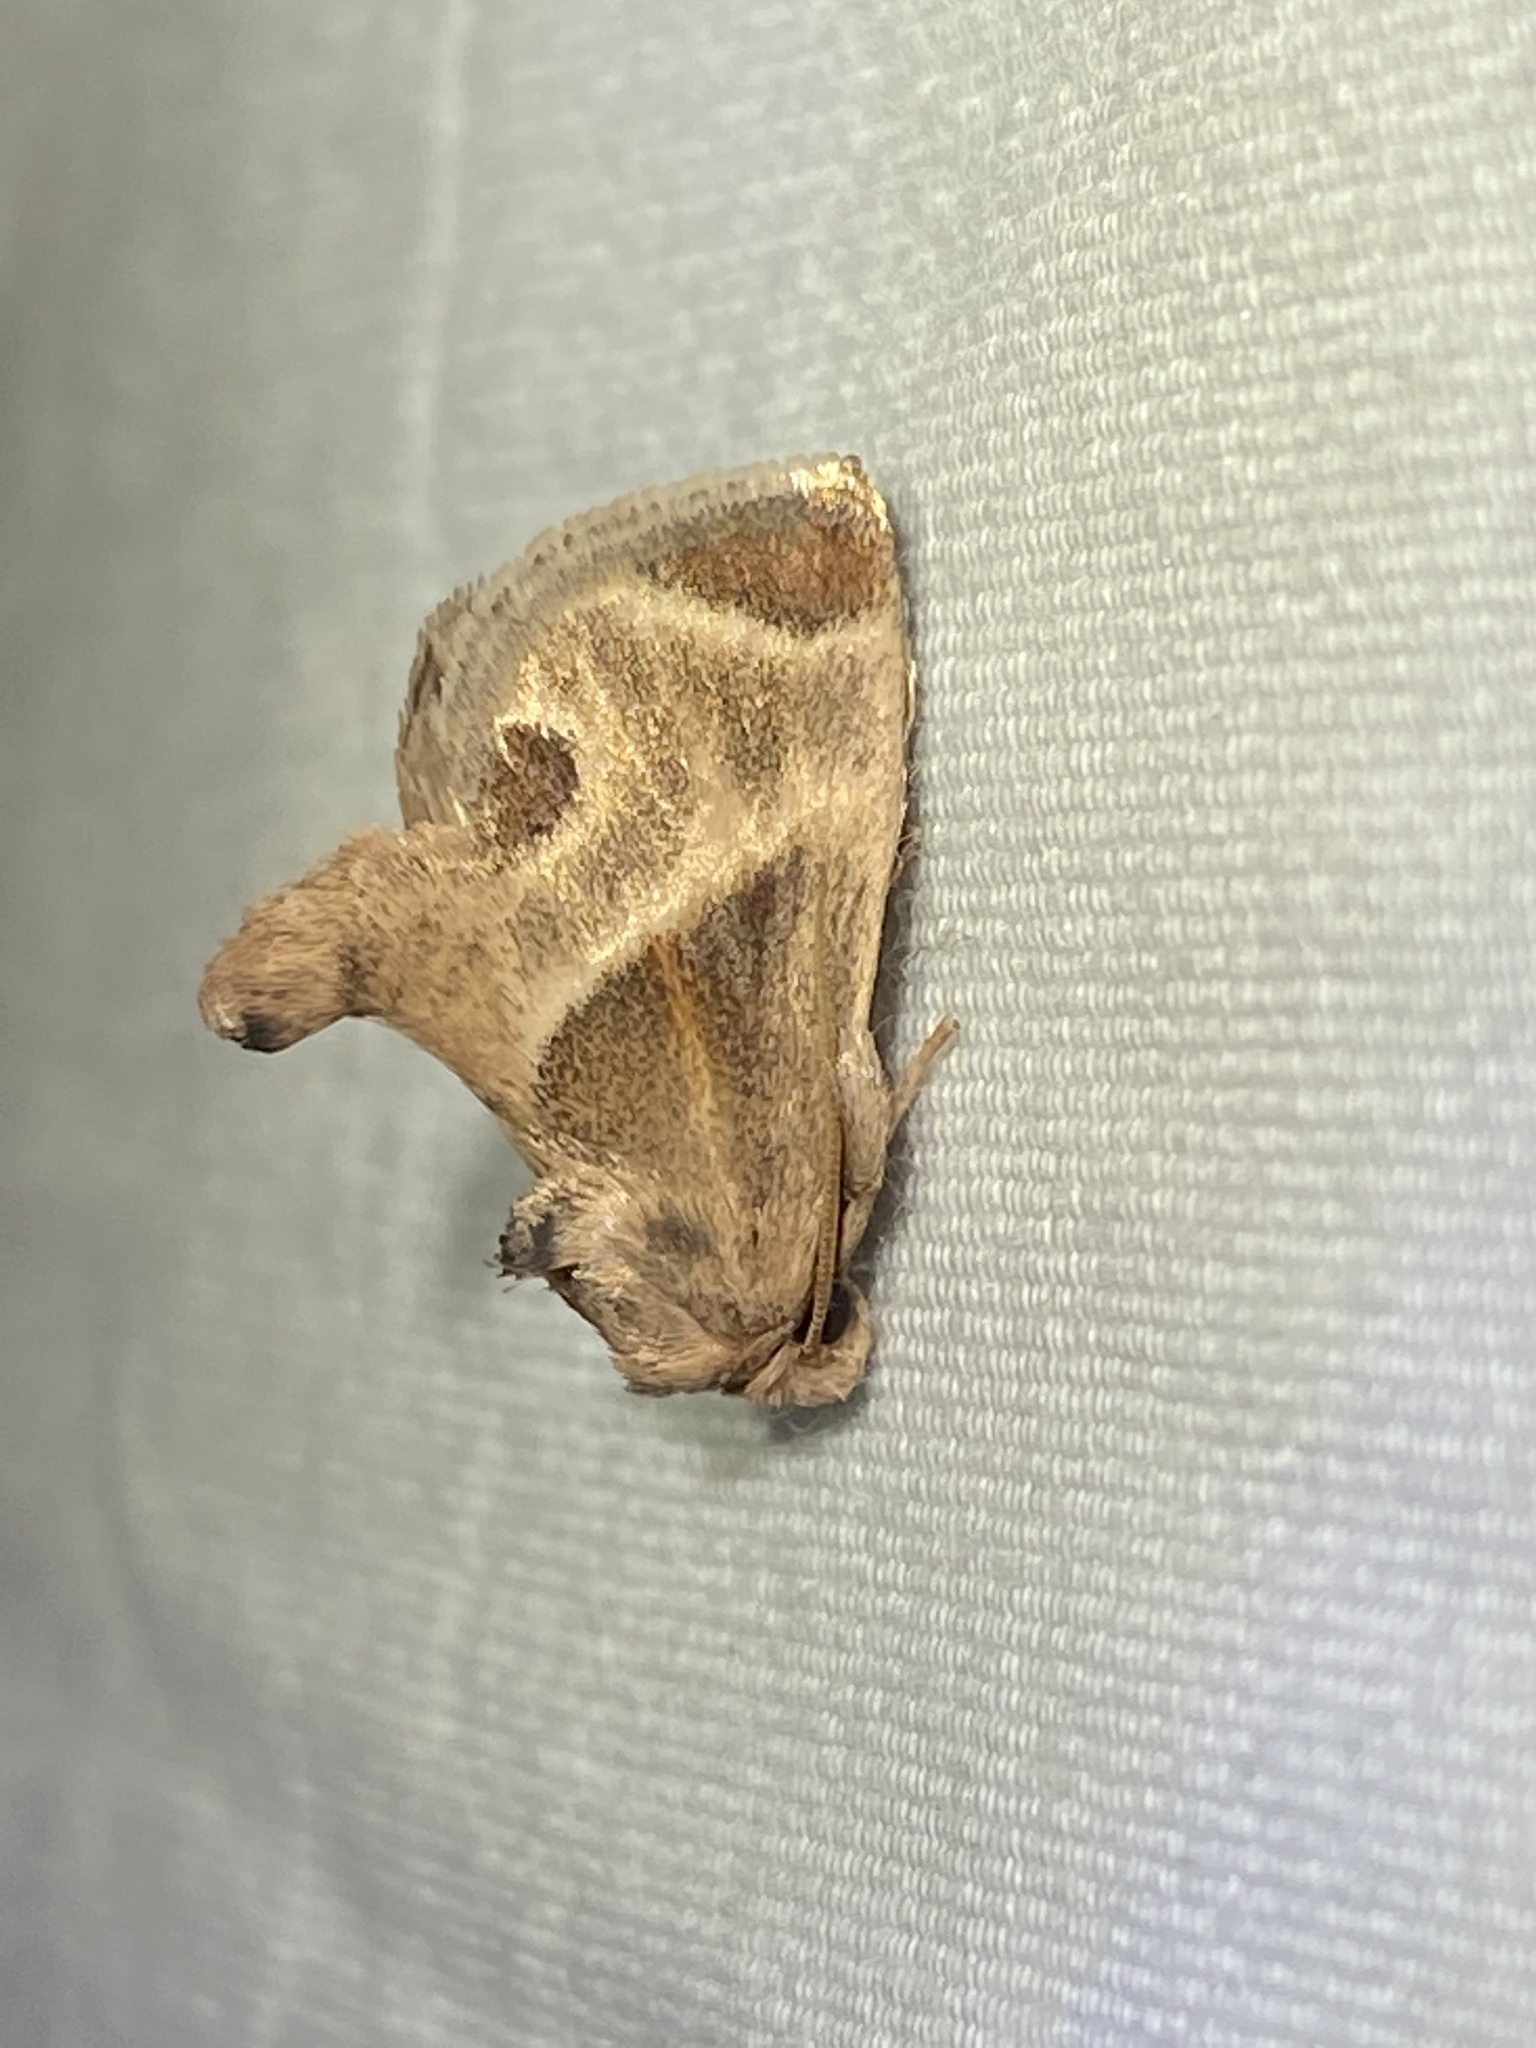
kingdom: Animalia
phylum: Arthropoda
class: Insecta
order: Lepidoptera
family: Limacodidae
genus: Apoda
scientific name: Apoda biguttata
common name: Shagreened slug moth
